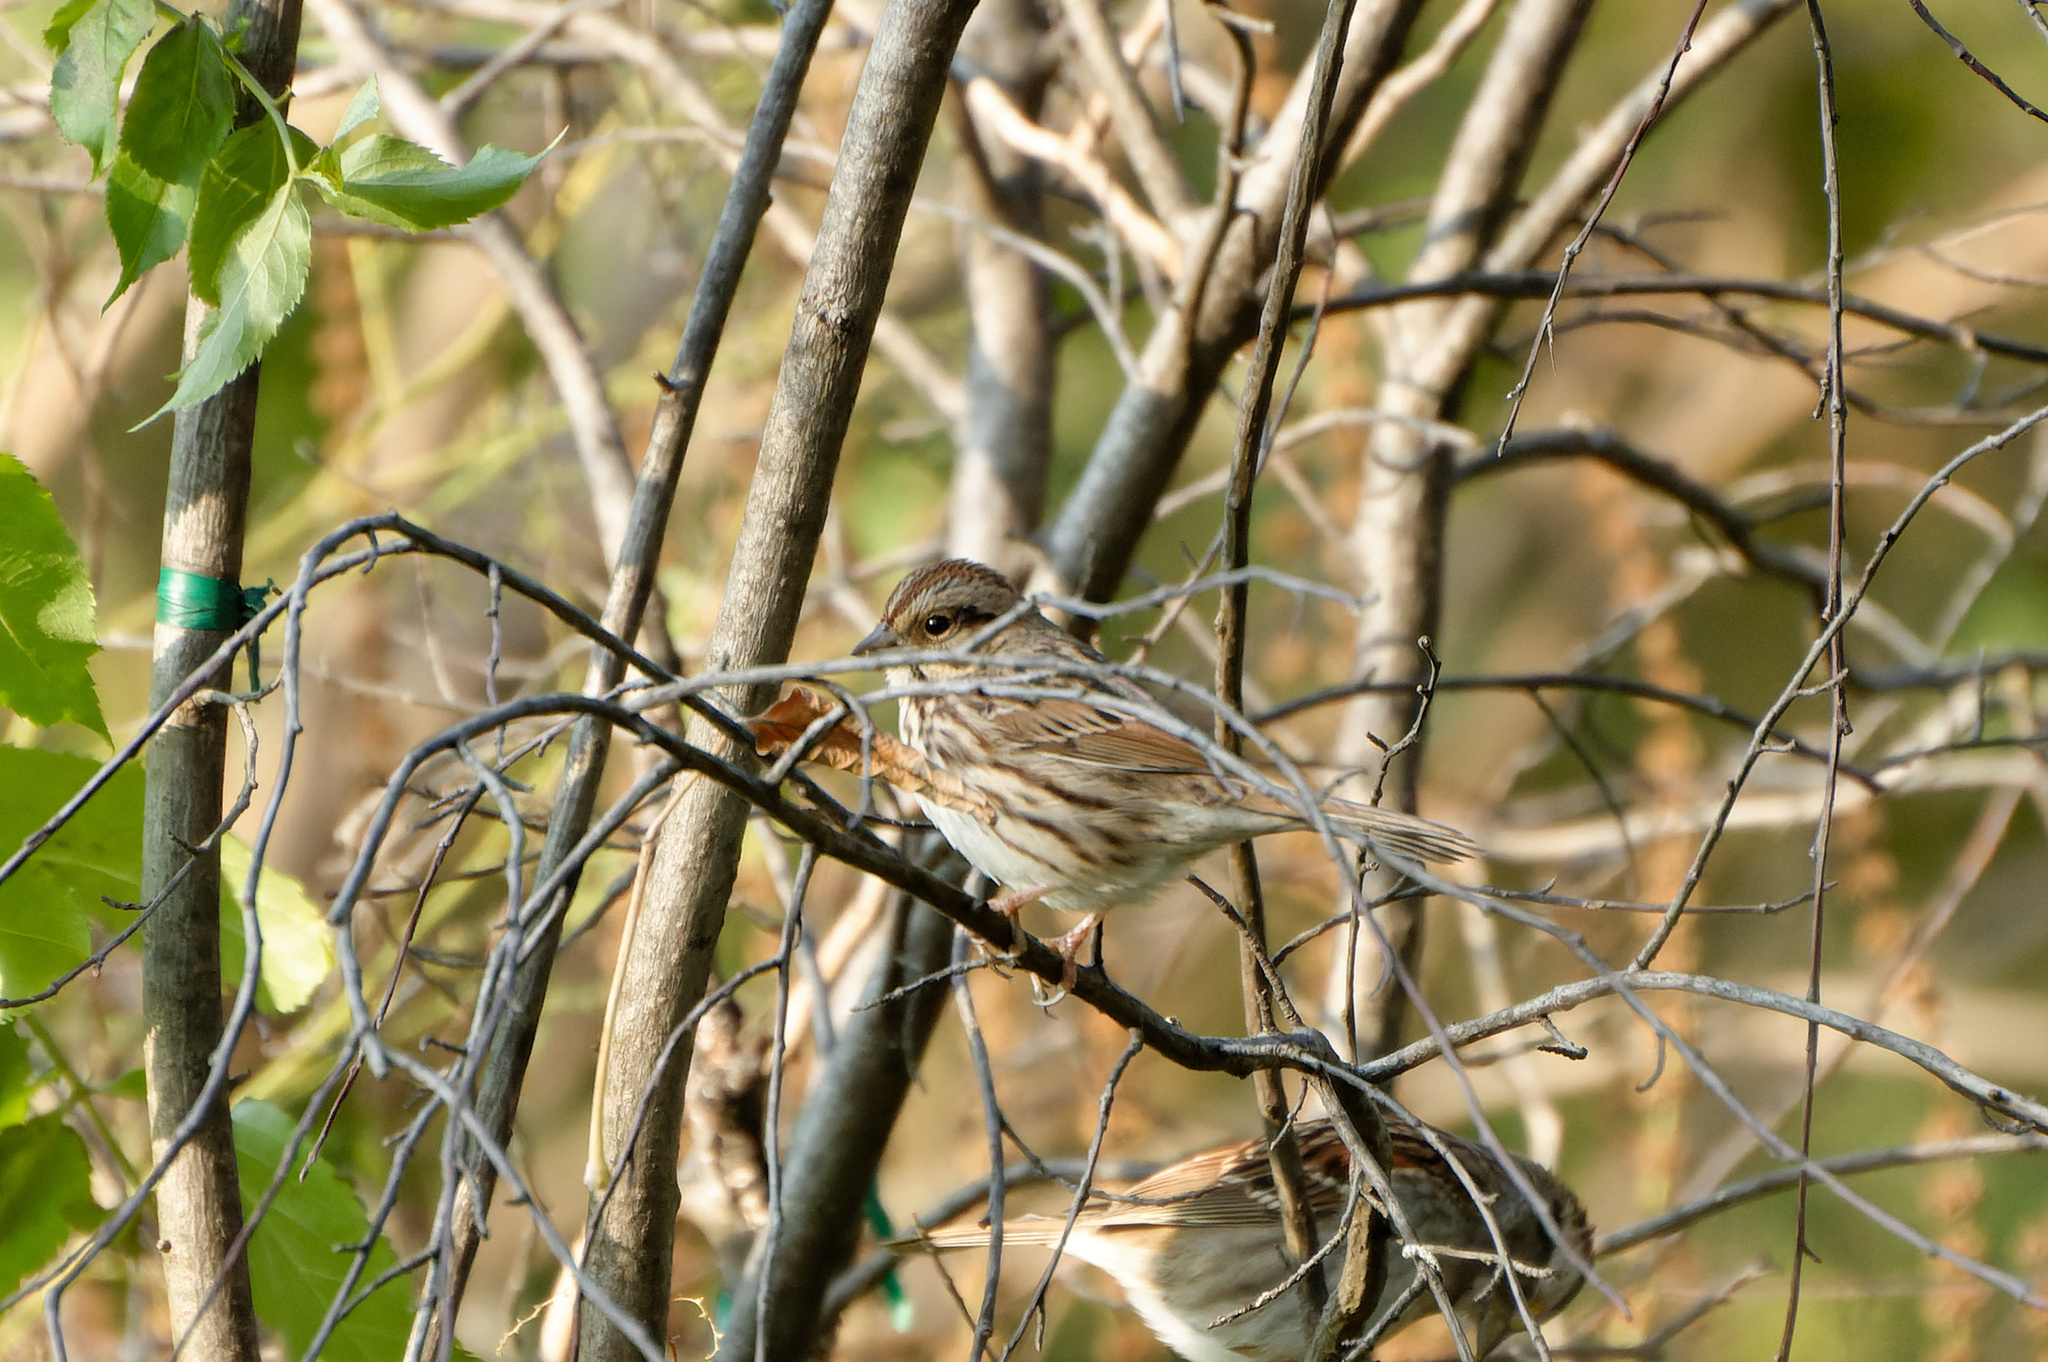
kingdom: Animalia
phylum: Chordata
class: Aves
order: Passeriformes
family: Passerellidae
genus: Melospiza
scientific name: Melospiza lincolnii
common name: Lincoln's sparrow
